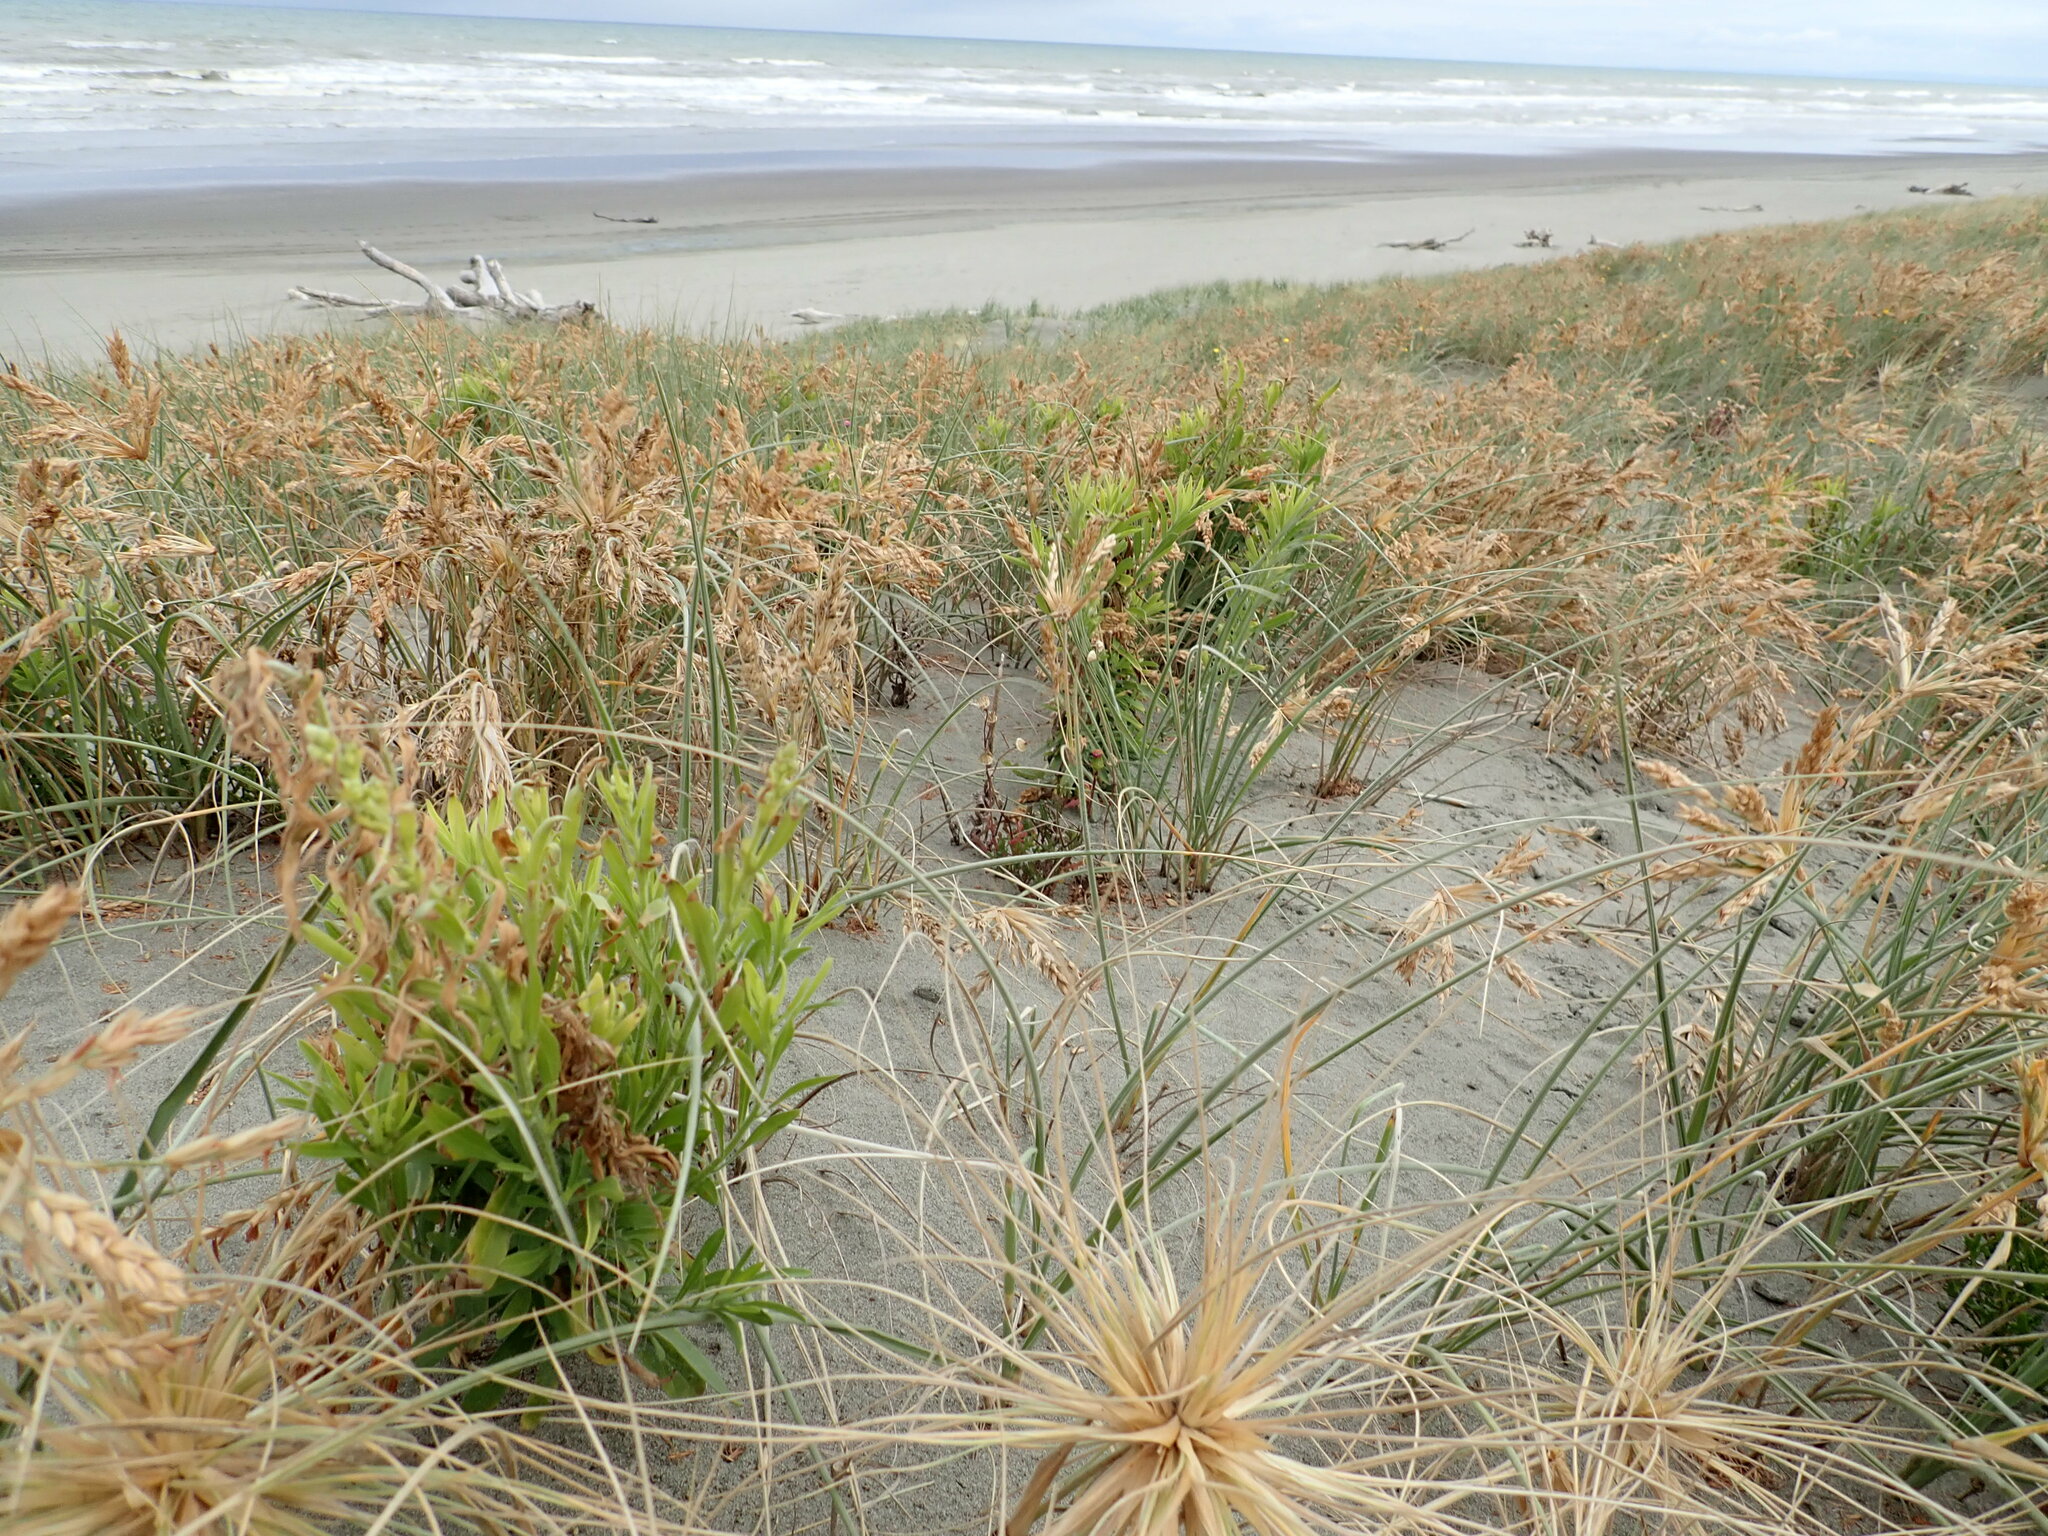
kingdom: Plantae
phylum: Tracheophyta
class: Magnoliopsida
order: Asterales
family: Asteraceae
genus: Erigeron
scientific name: Erigeron sumatrensis
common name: Daisy
